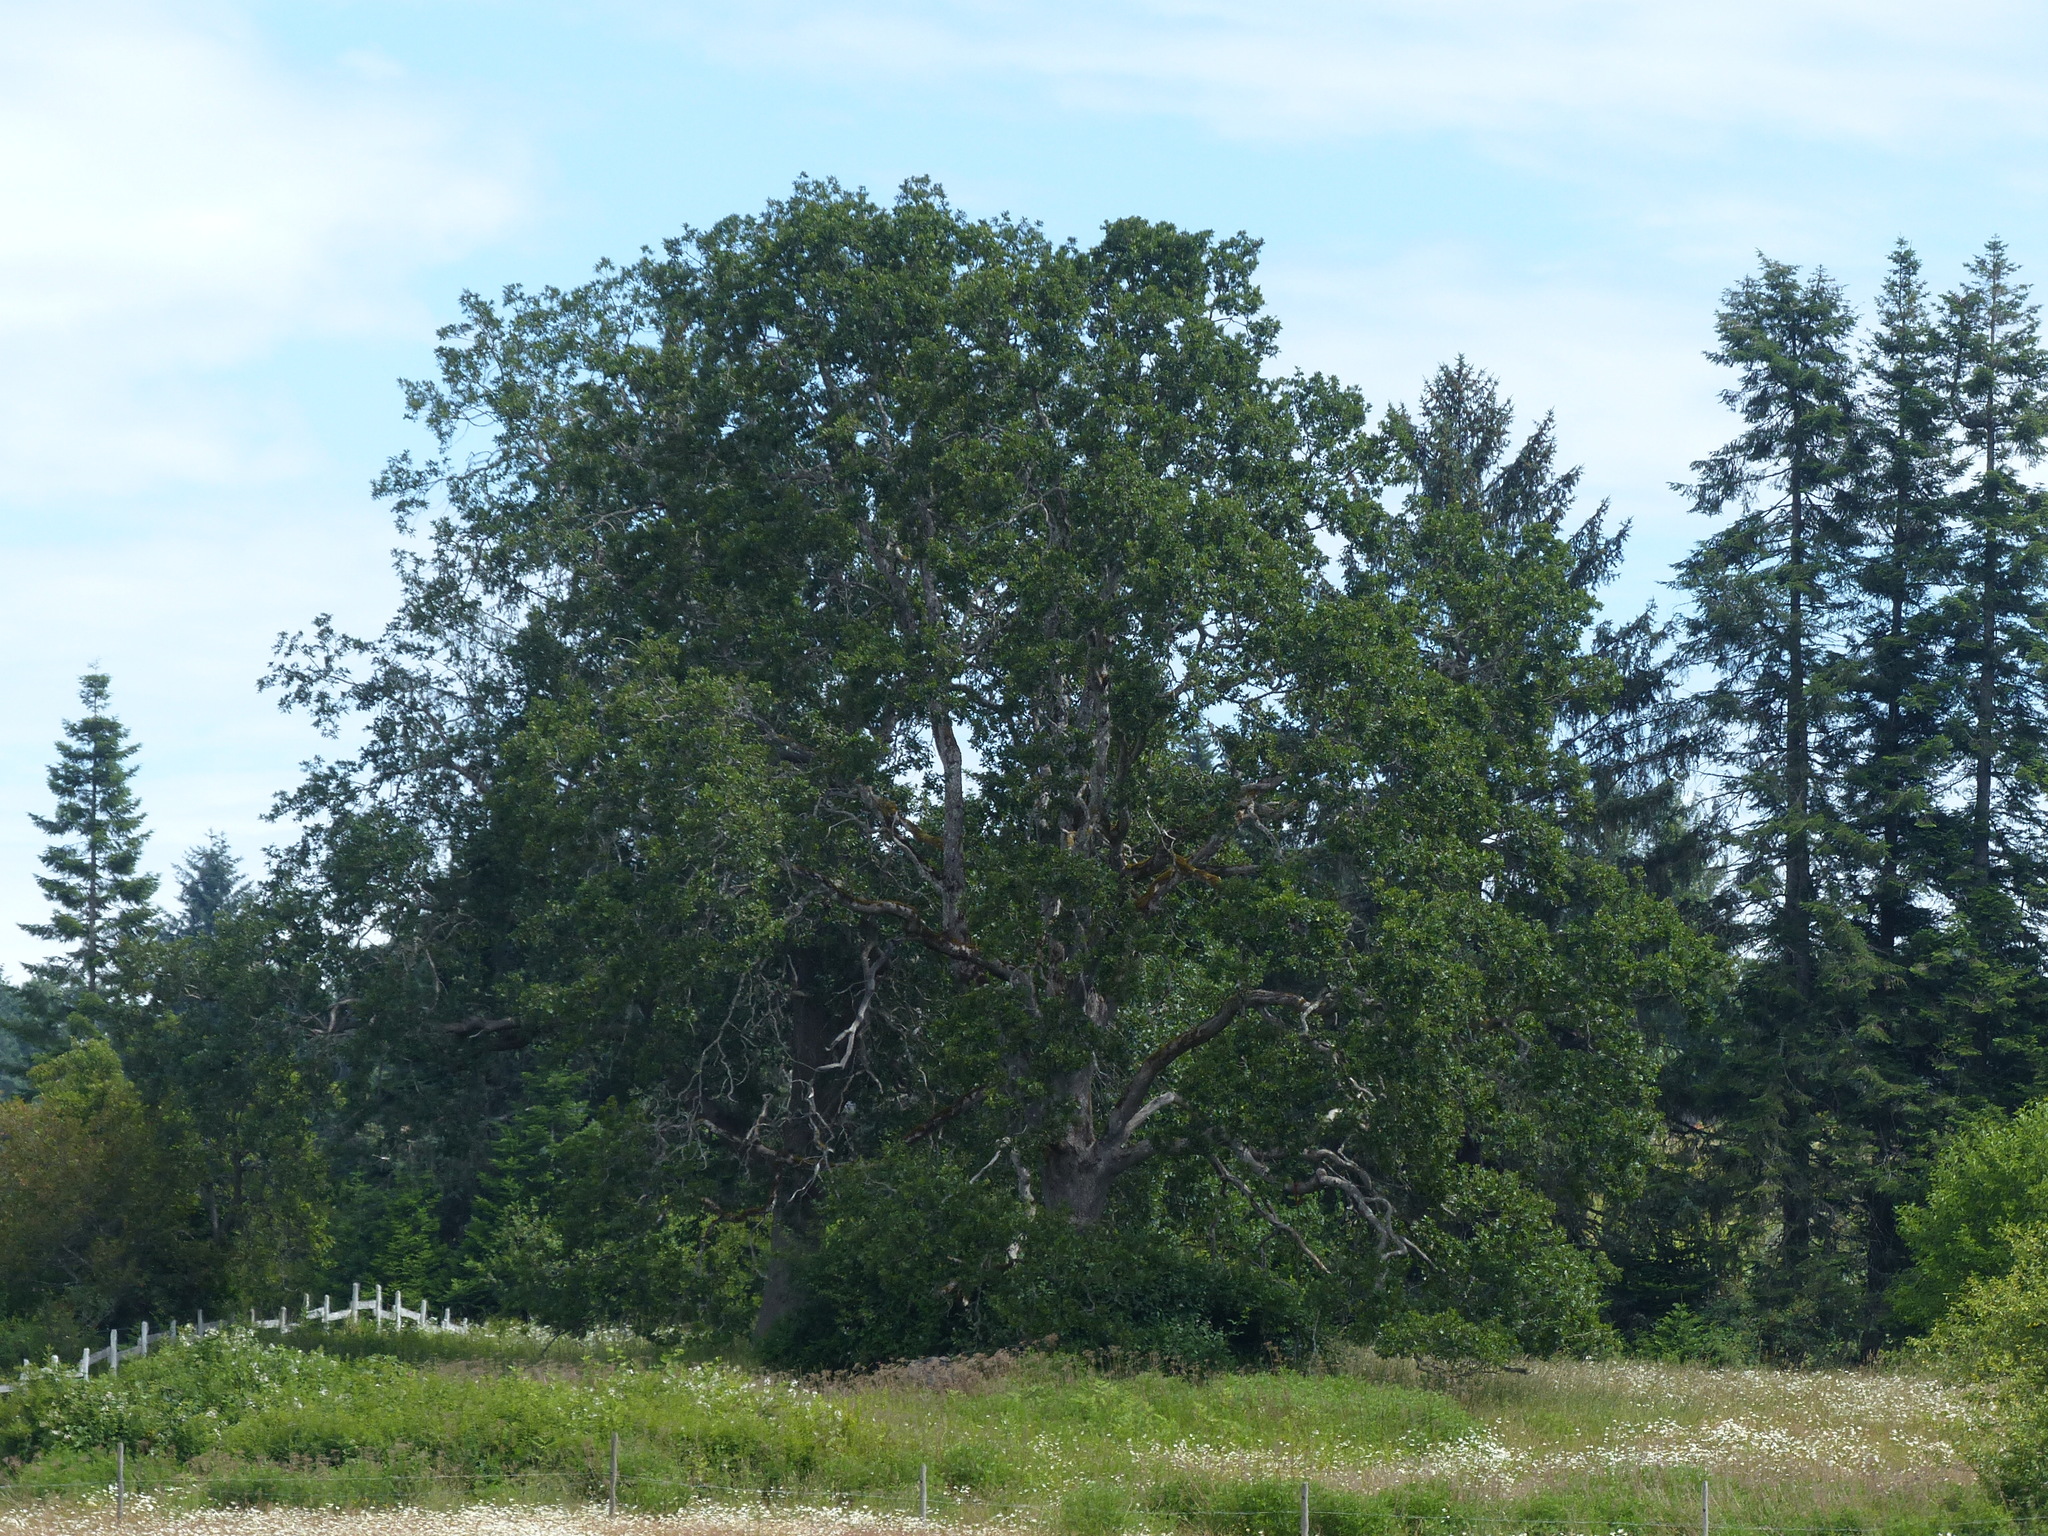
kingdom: Plantae
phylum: Tracheophyta
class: Magnoliopsida
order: Fagales
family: Fagaceae
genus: Quercus
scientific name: Quercus garryana
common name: Garry oak
